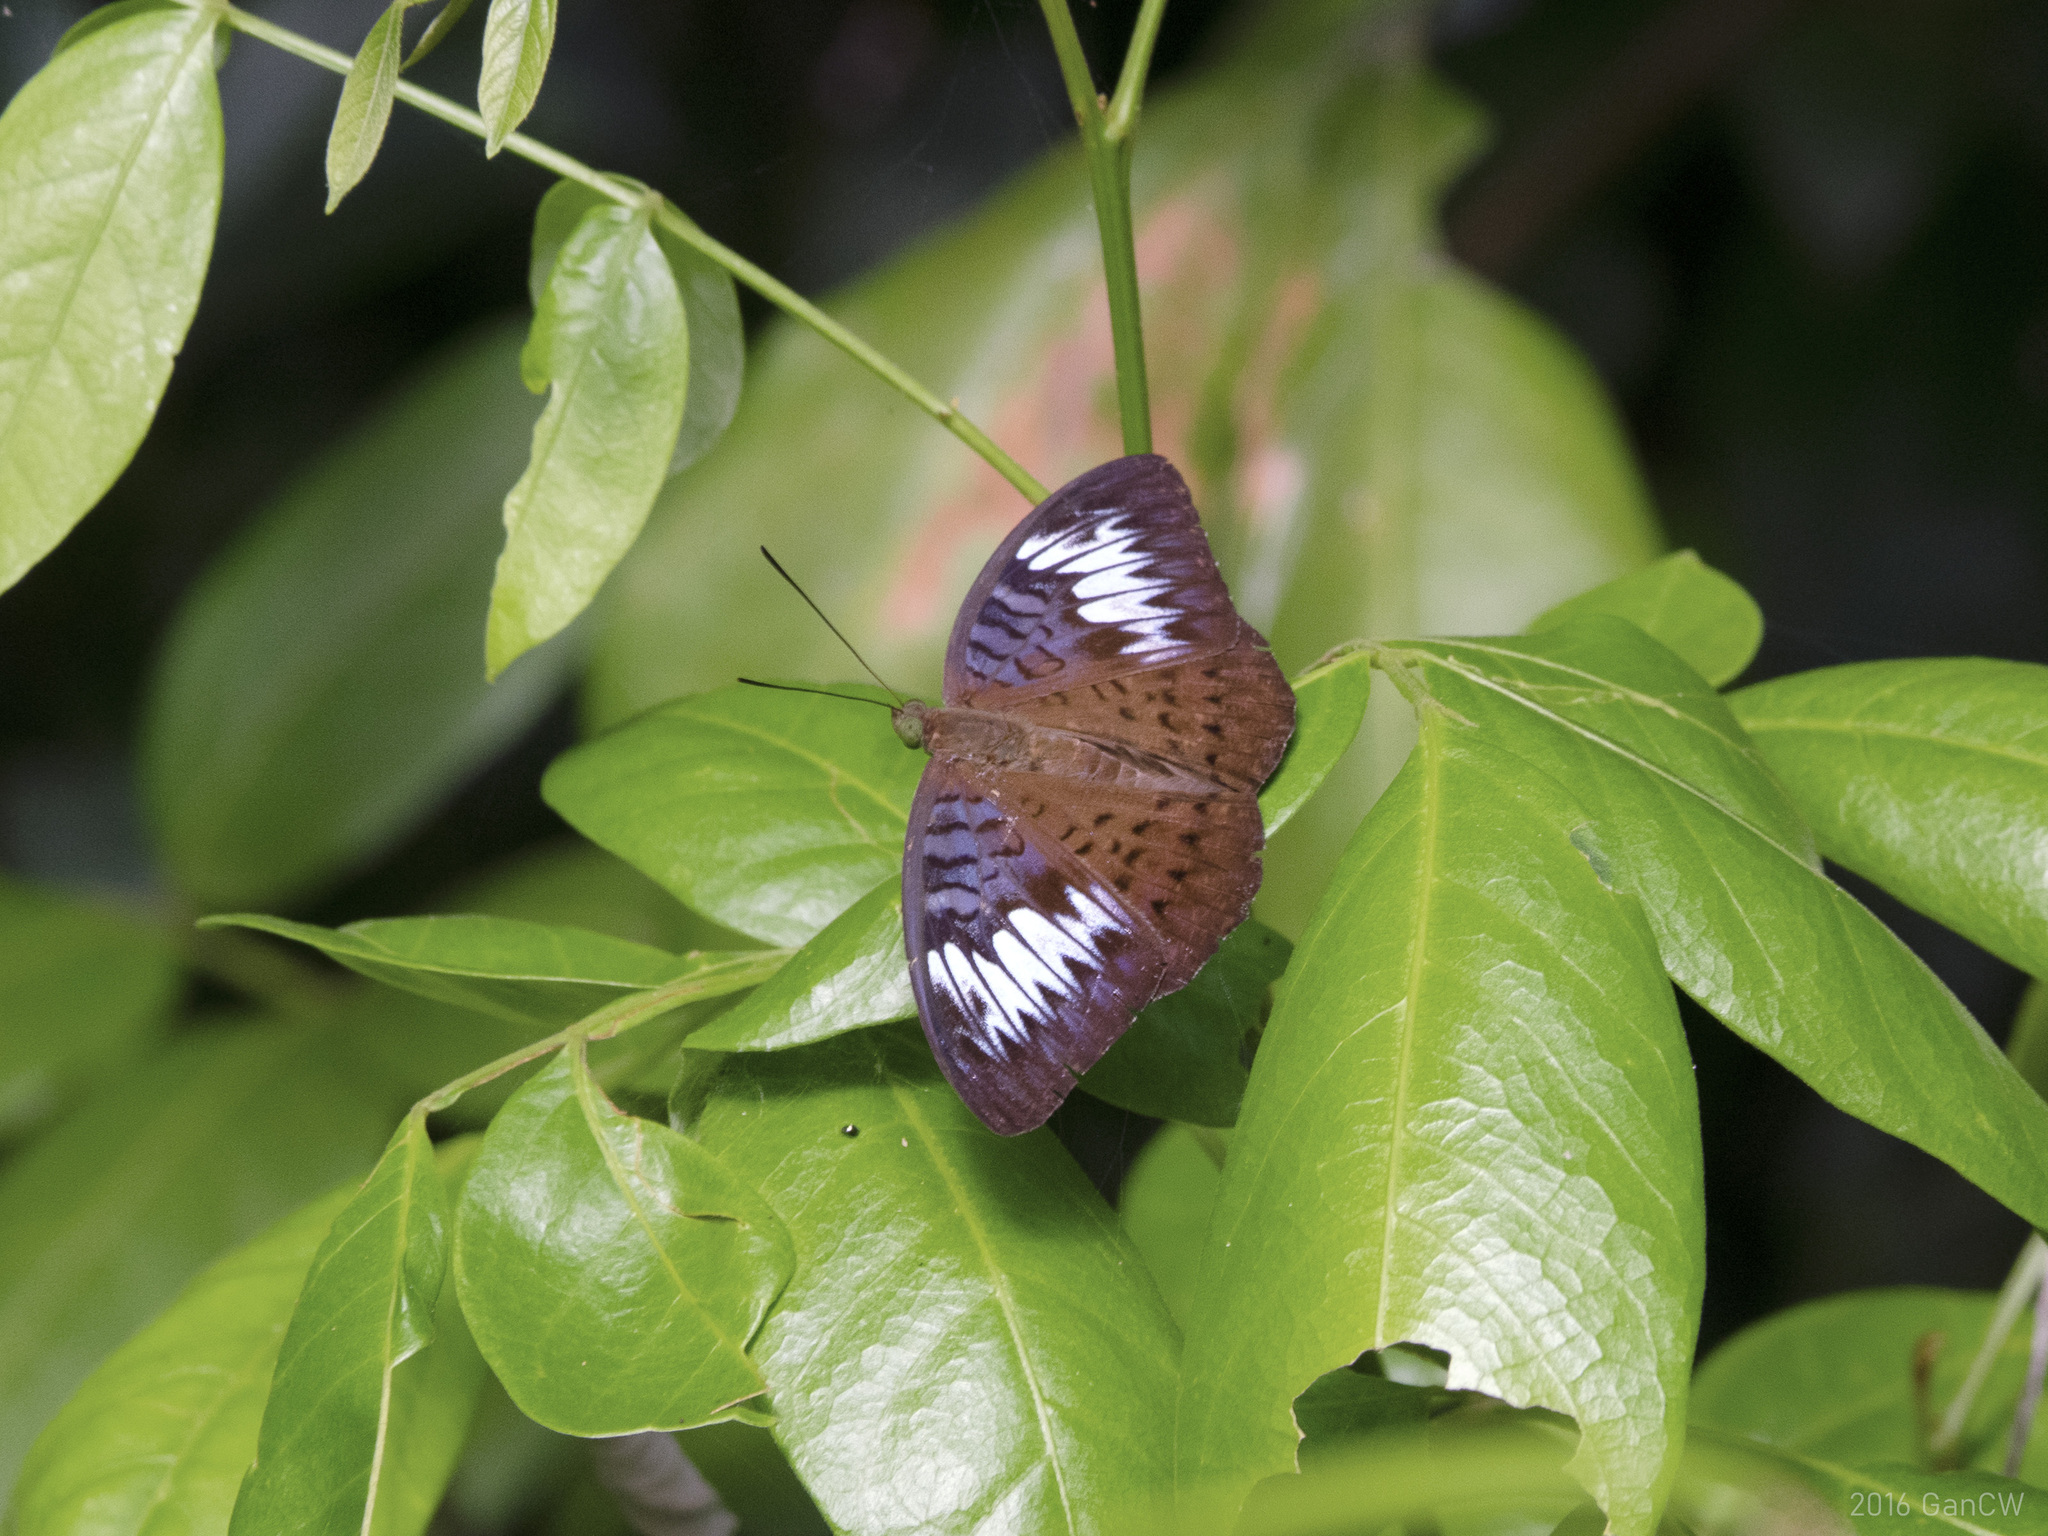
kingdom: Animalia
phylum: Arthropoda
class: Insecta
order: Lepidoptera
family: Nymphalidae
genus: Tanaecia
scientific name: Tanaecia pelea
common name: Malay viscount
